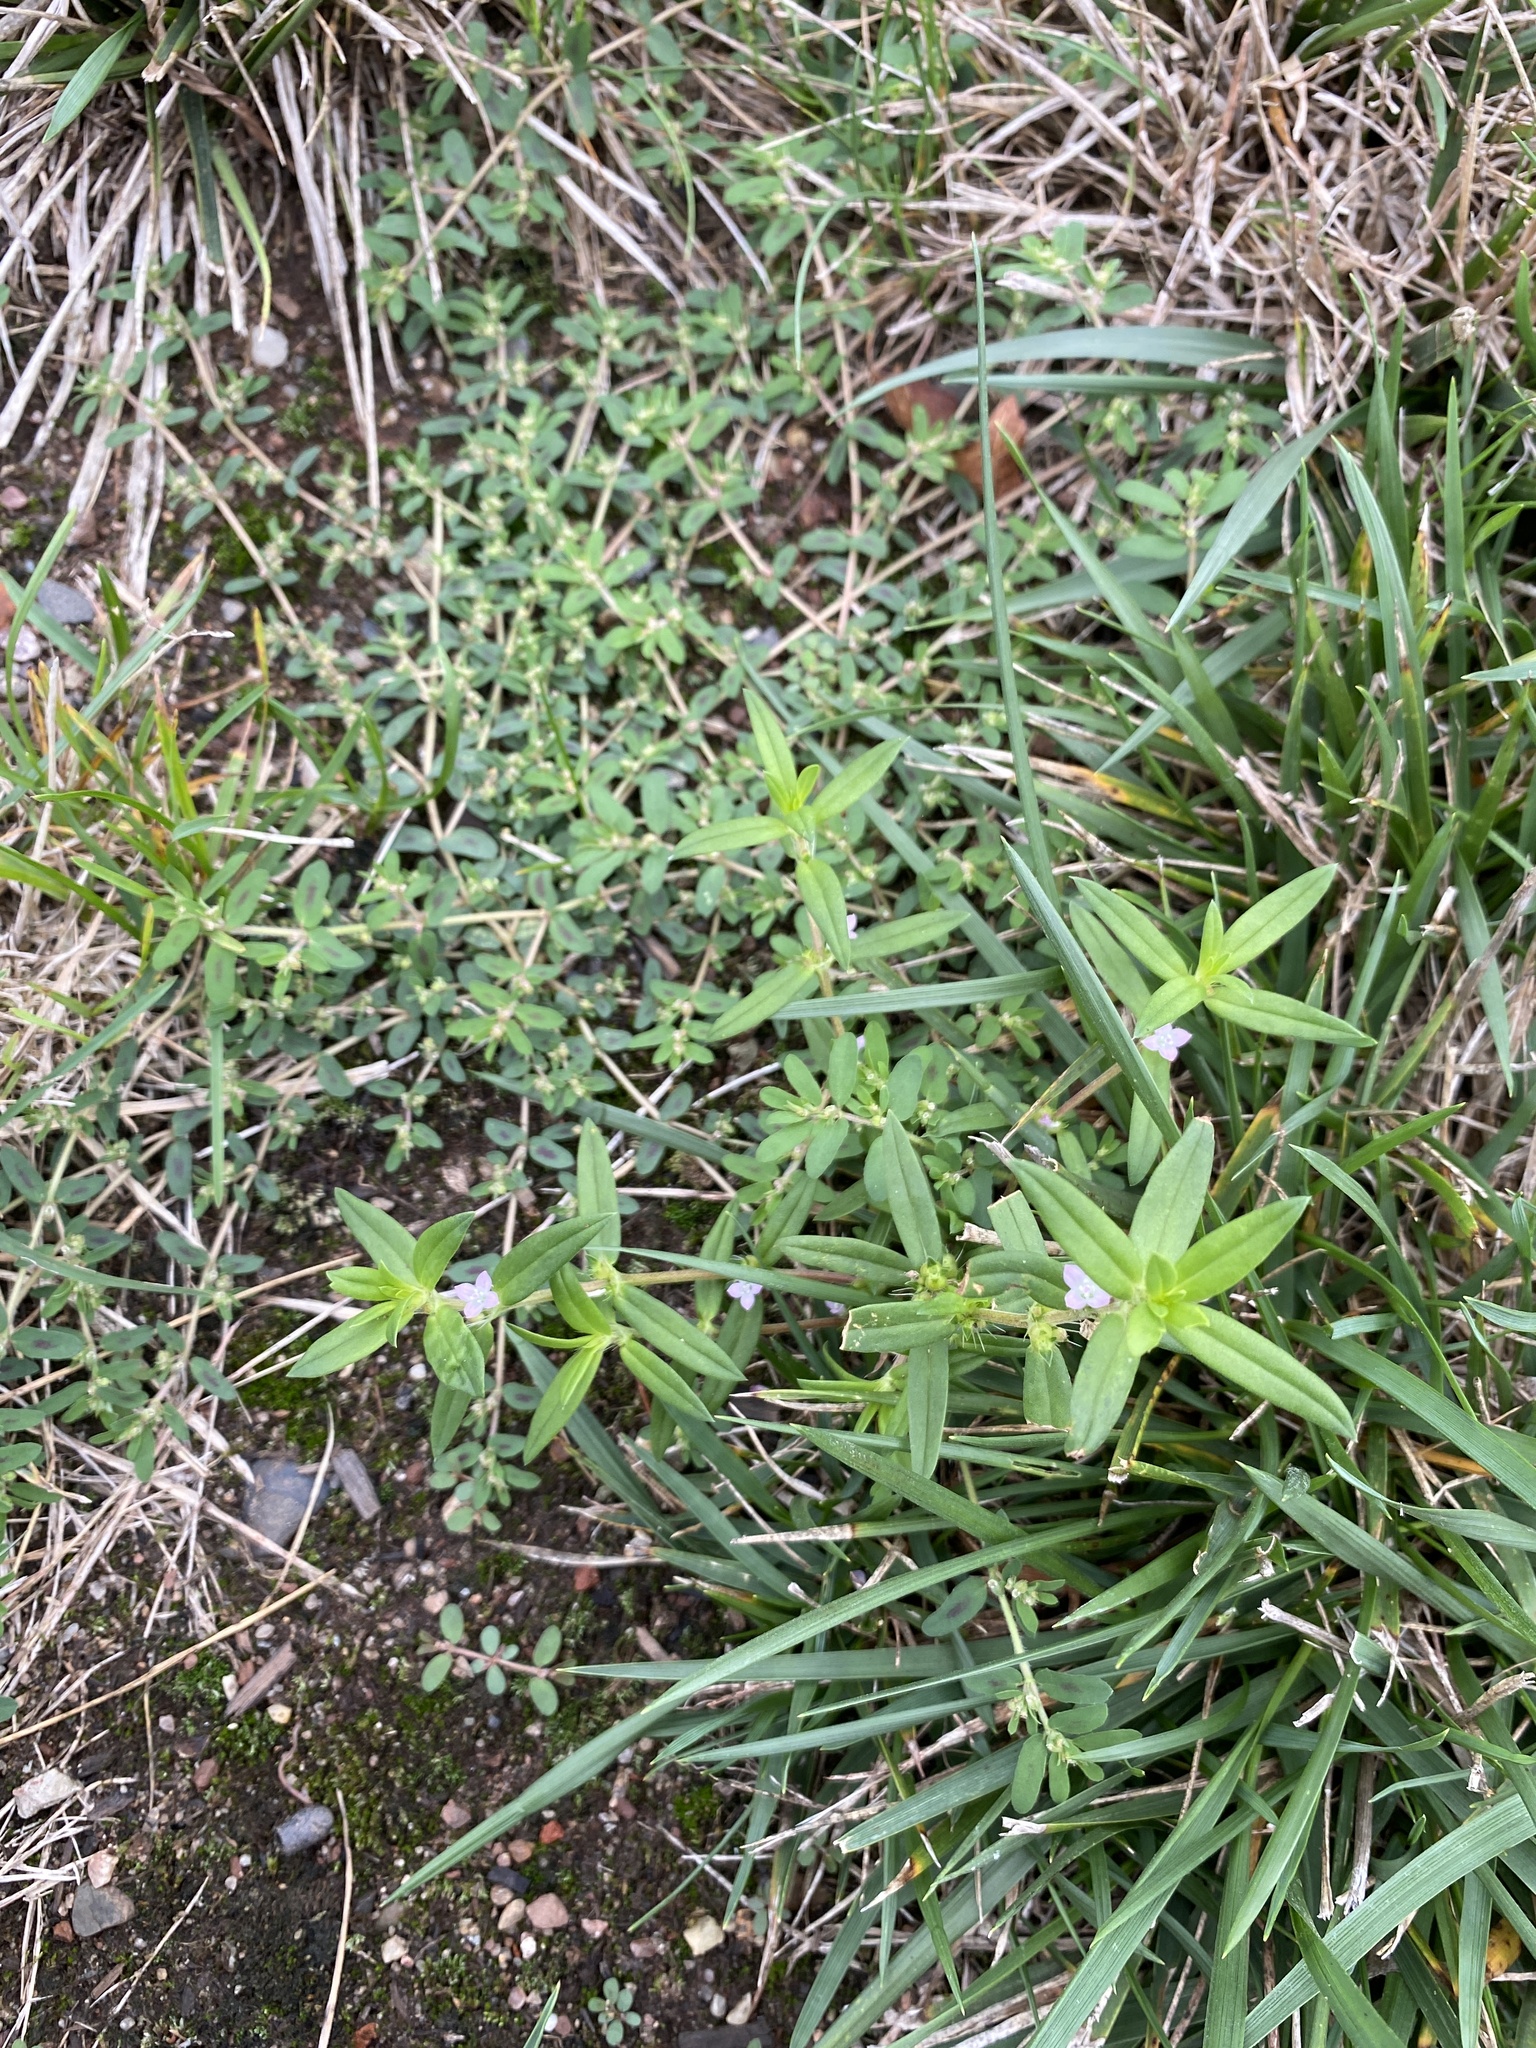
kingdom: Plantae
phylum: Tracheophyta
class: Magnoliopsida
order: Gentianales
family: Rubiaceae
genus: Hexasepalum
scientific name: Hexasepalum teres
